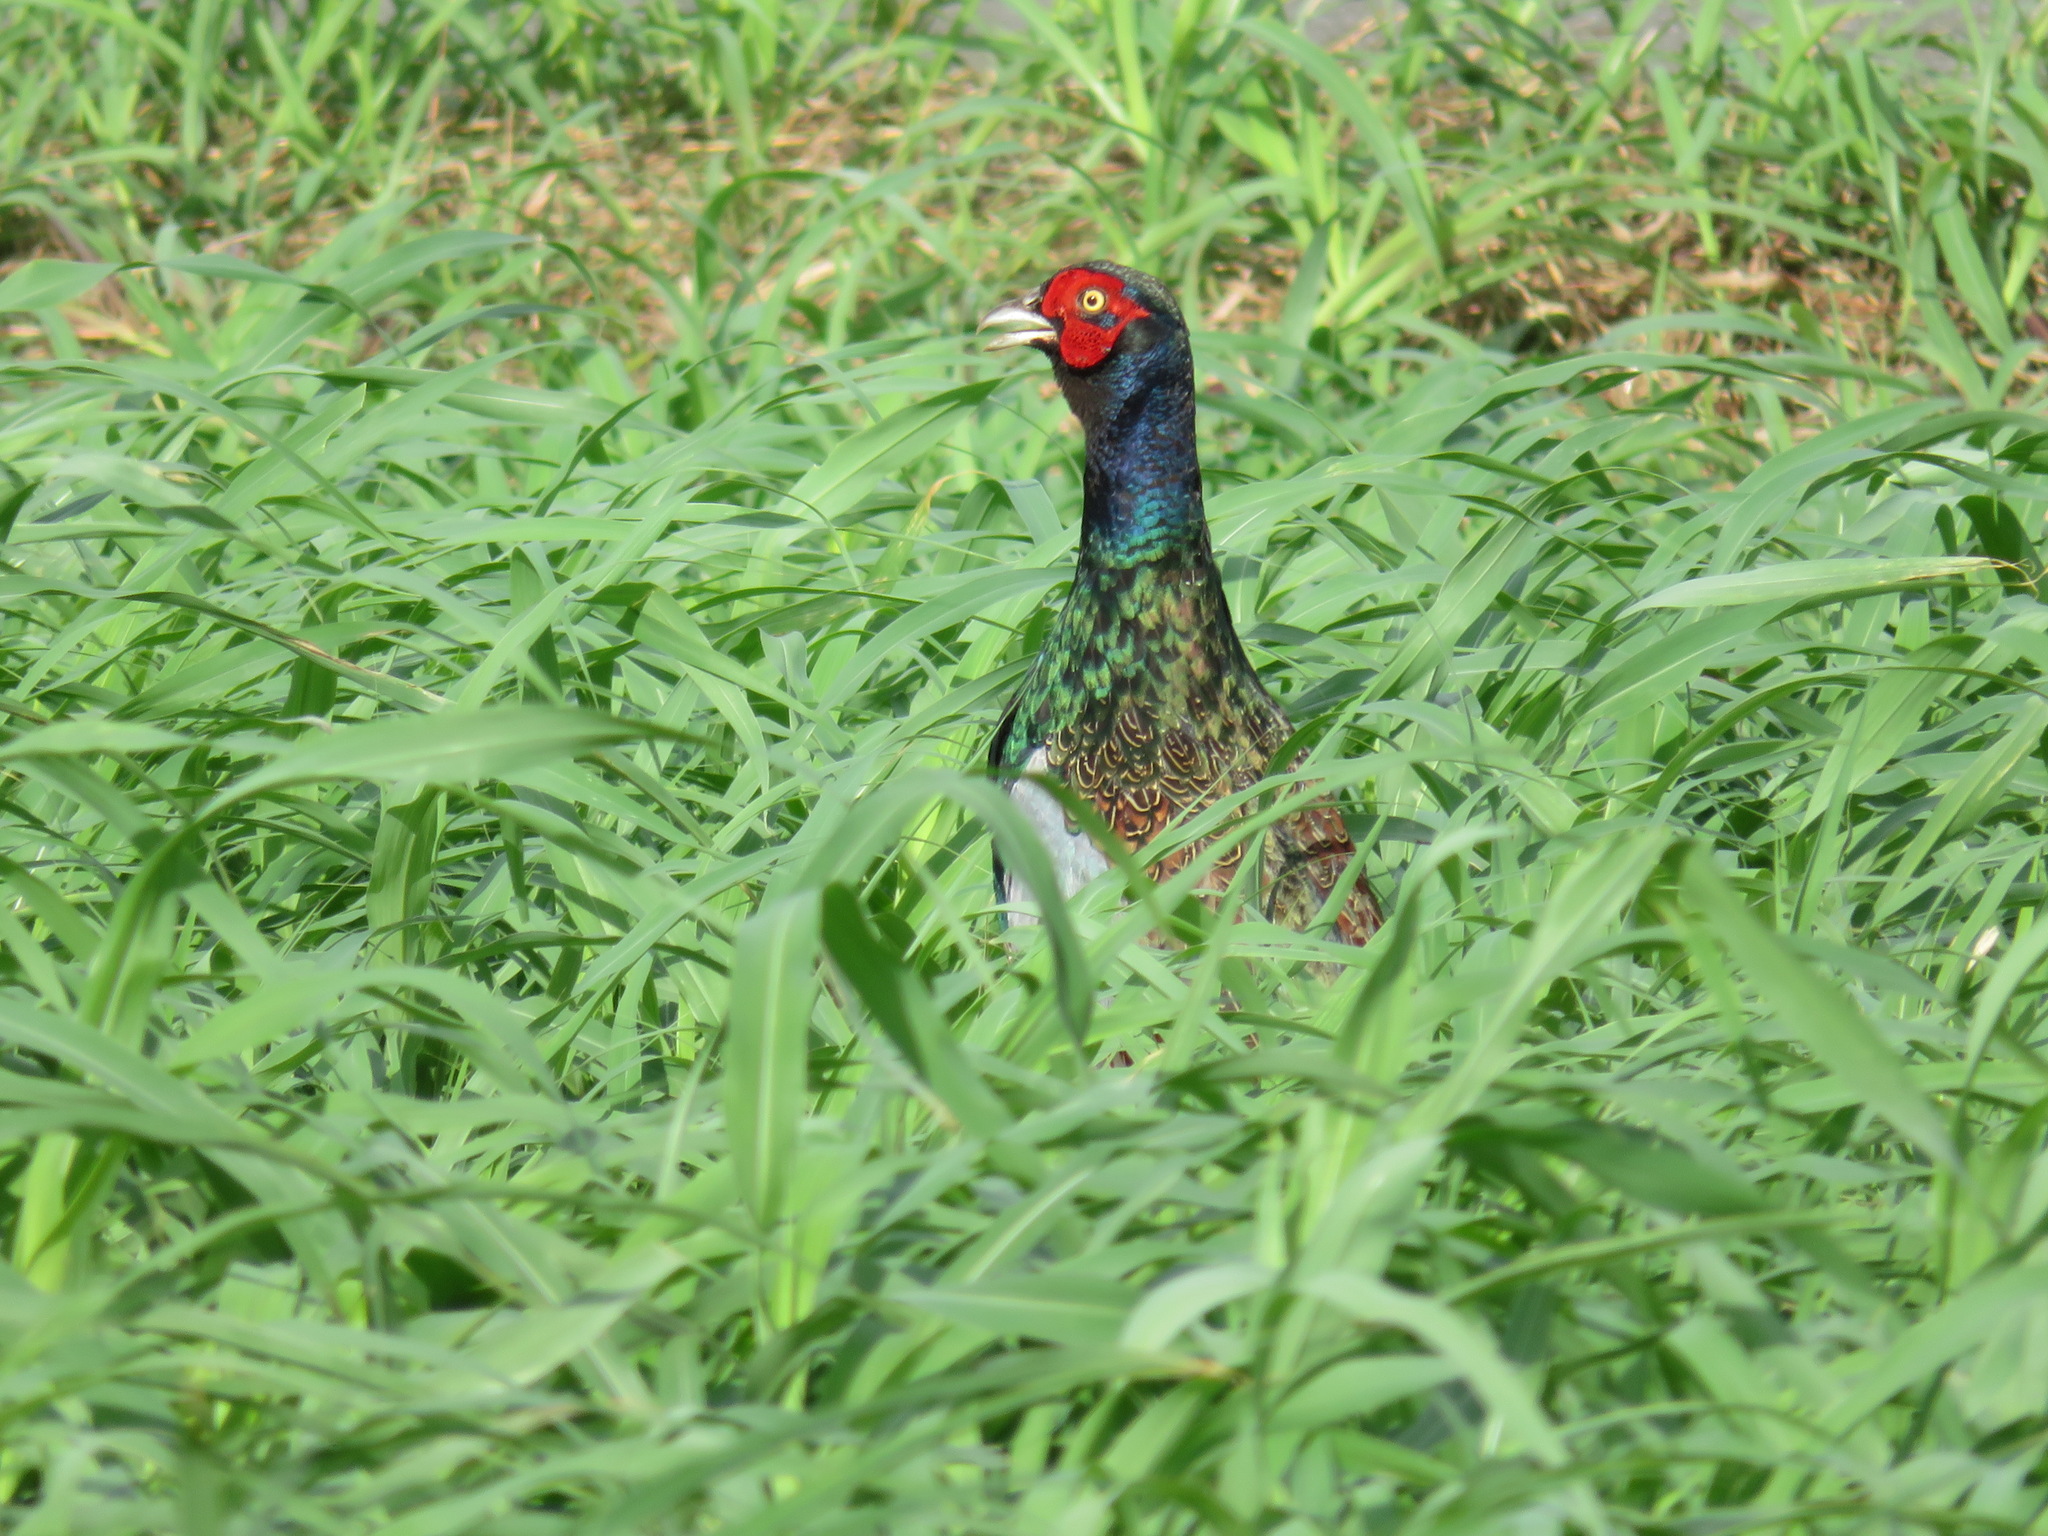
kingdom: Animalia
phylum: Chordata
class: Aves
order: Galliformes
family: Phasianidae
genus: Phasianus
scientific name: Phasianus versicolor
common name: Green pheasant
